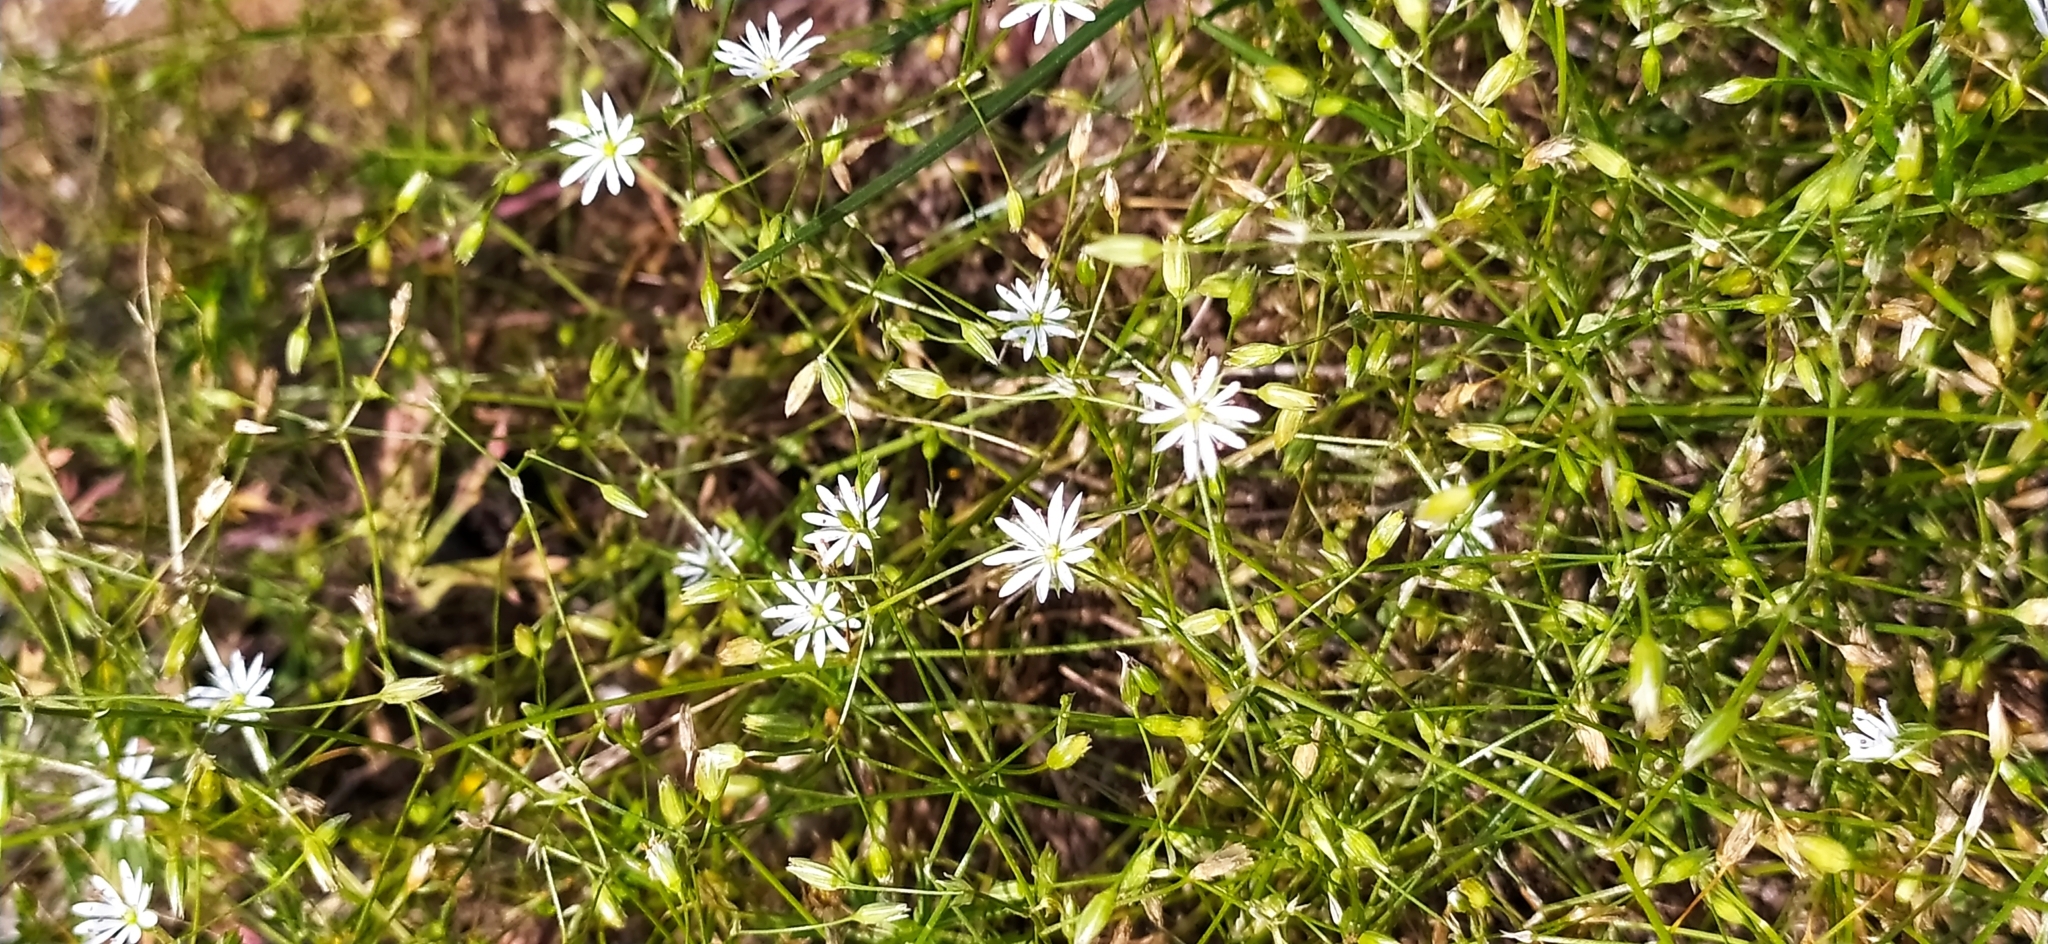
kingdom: Plantae
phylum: Tracheophyta
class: Magnoliopsida
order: Caryophyllales
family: Caryophyllaceae
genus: Stellaria
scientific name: Stellaria graminea
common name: Grass-like starwort
